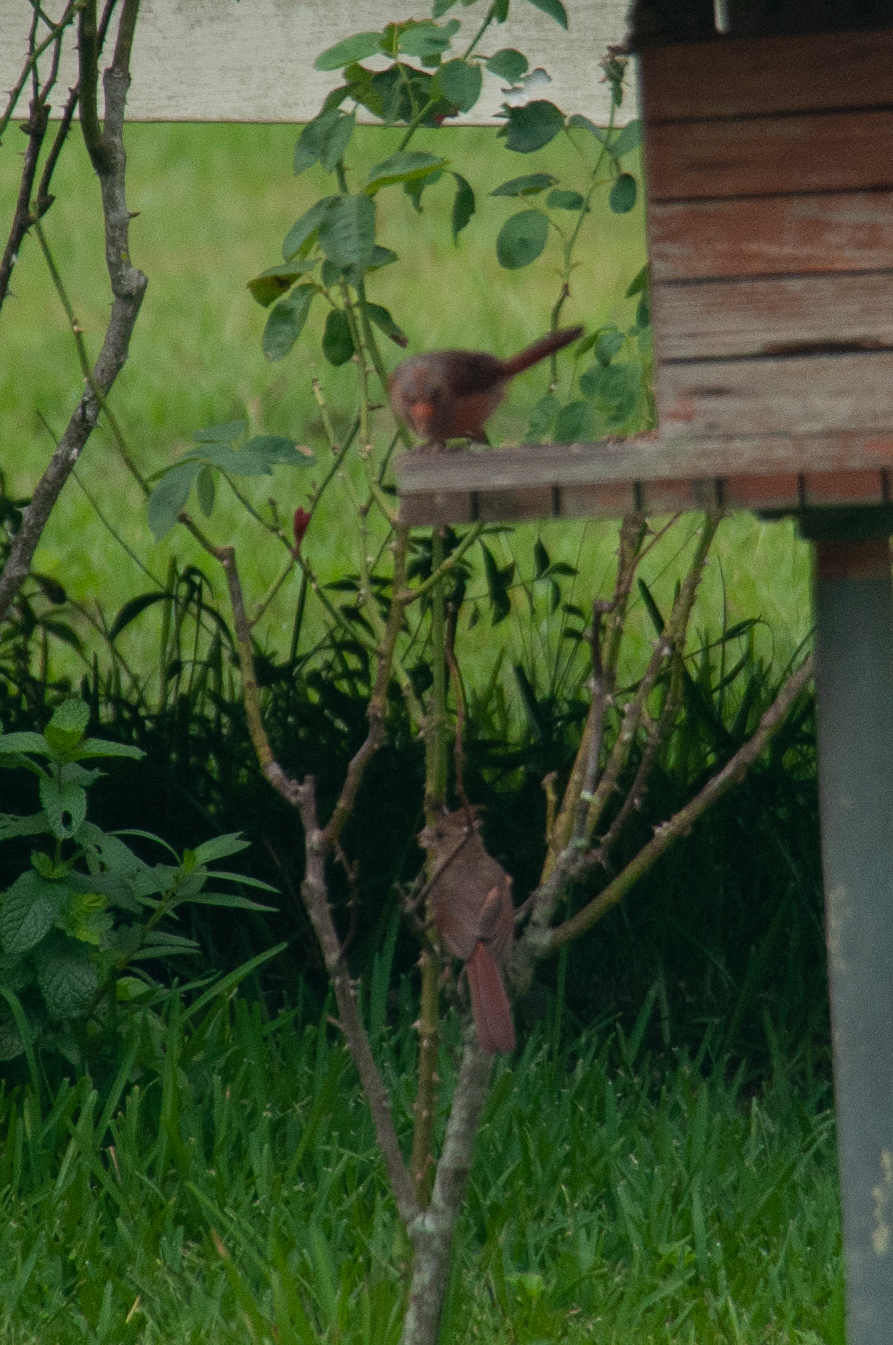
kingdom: Animalia
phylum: Chordata
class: Aves
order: Passeriformes
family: Cardinalidae
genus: Cardinalis
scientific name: Cardinalis cardinalis
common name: Northern cardinal
